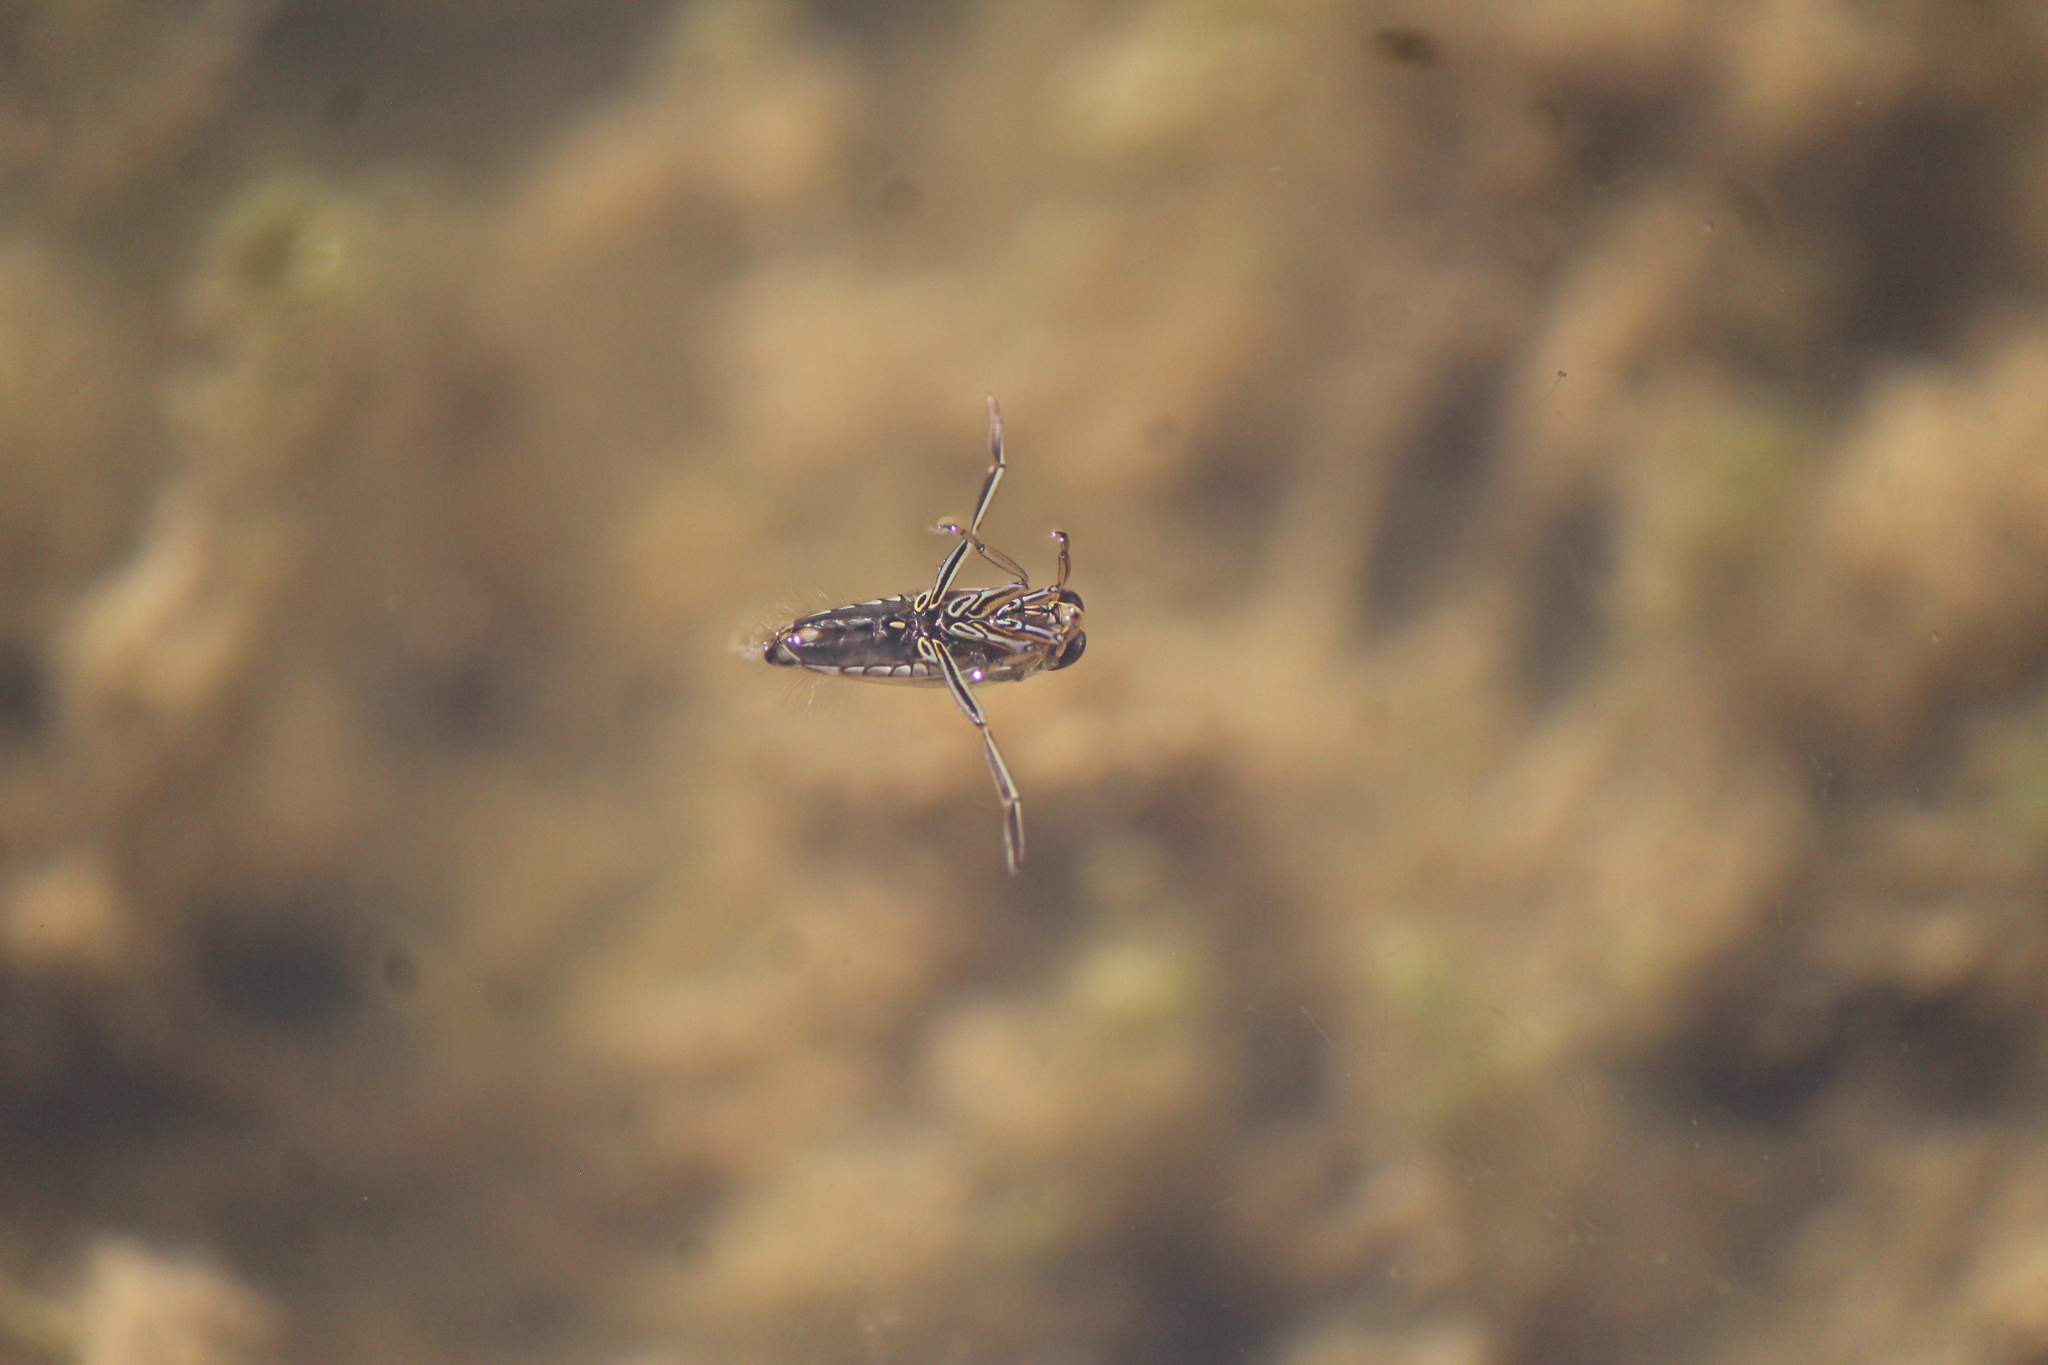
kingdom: Animalia
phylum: Arthropoda
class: Insecta
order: Hemiptera
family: Notonectidae
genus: Notonecta
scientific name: Notonecta
